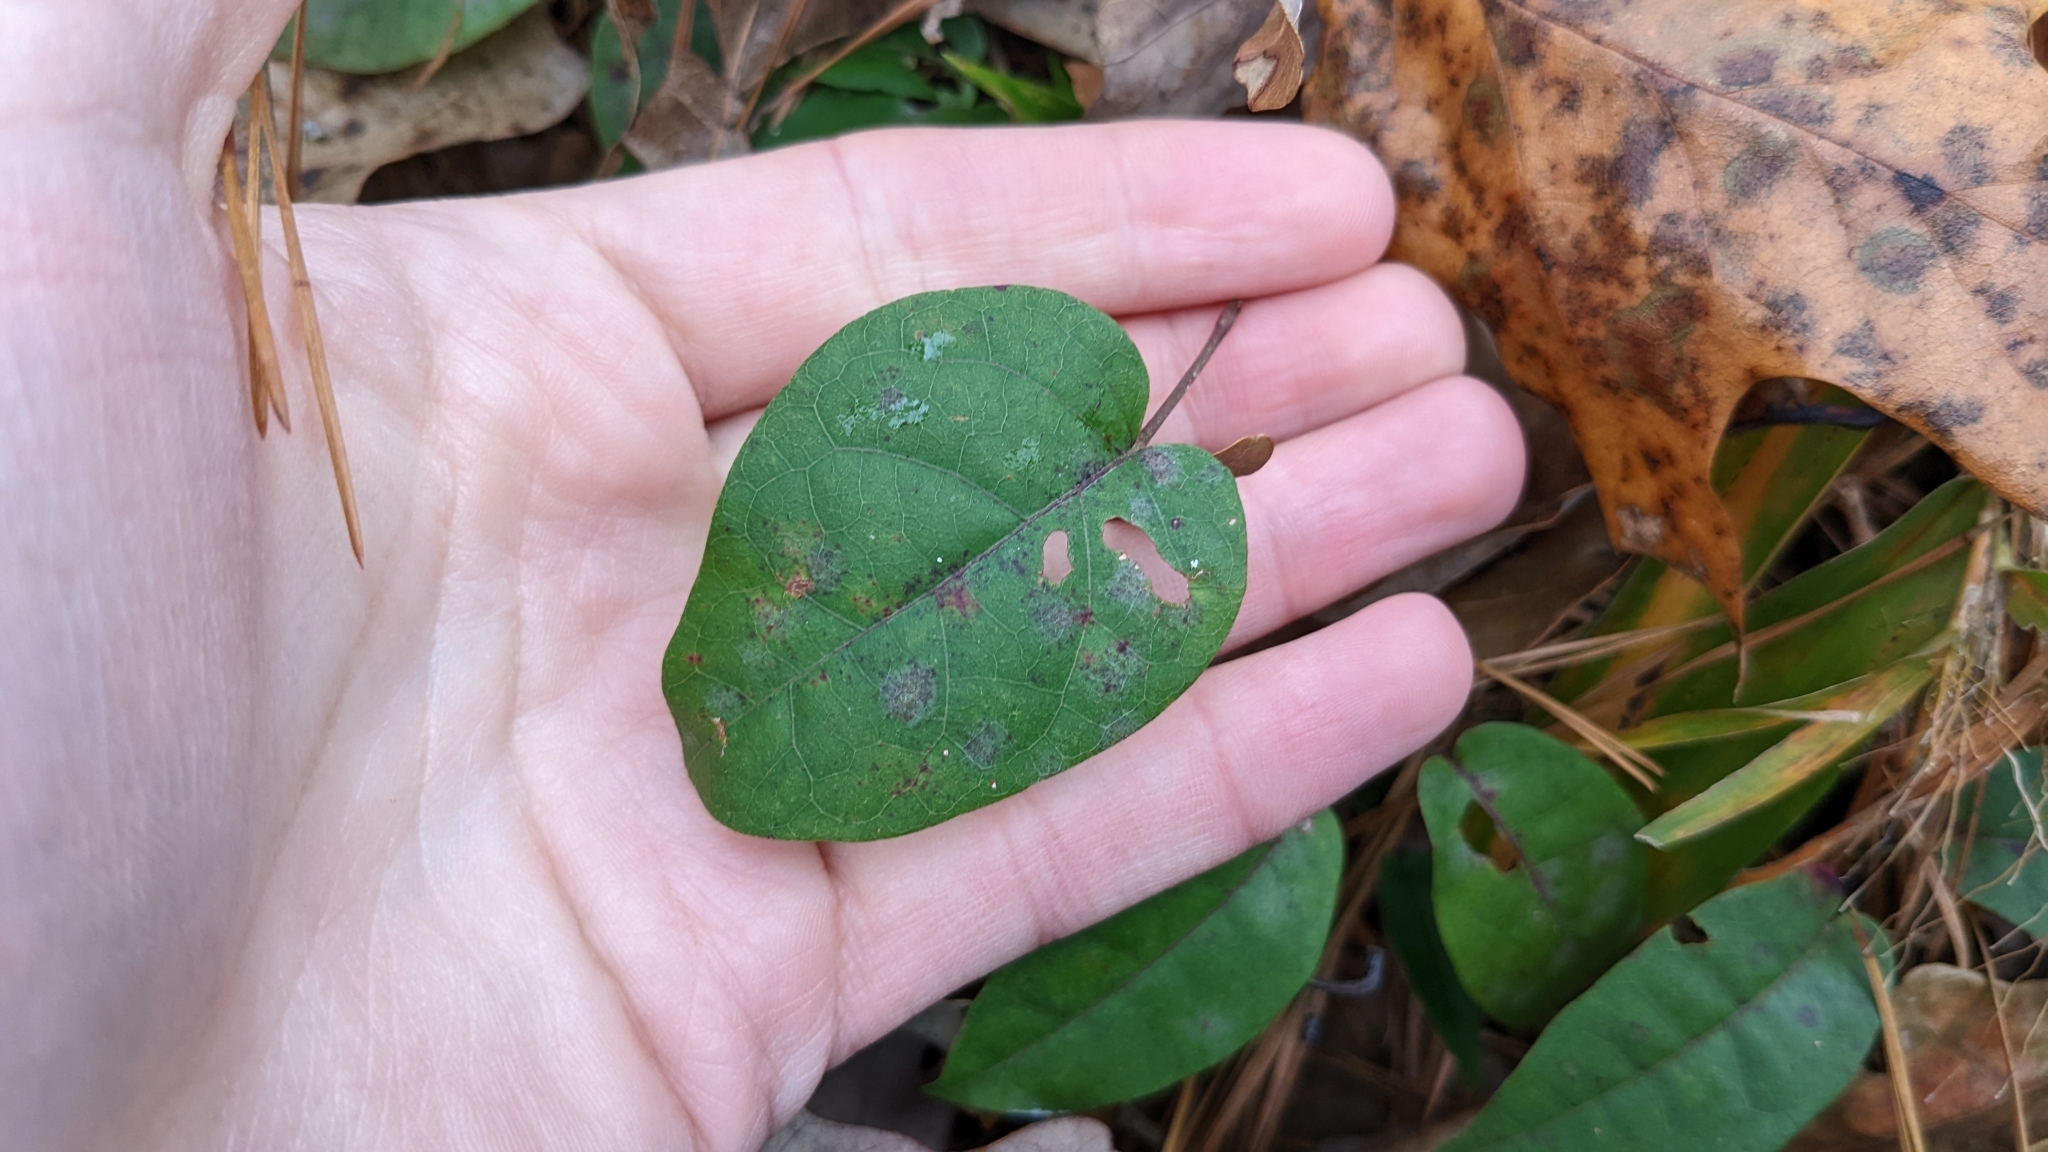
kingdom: Plantae
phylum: Tracheophyta
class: Magnoliopsida
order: Lamiales
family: Bignoniaceae
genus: Bignonia
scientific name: Bignonia capreolata
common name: Crossvine
